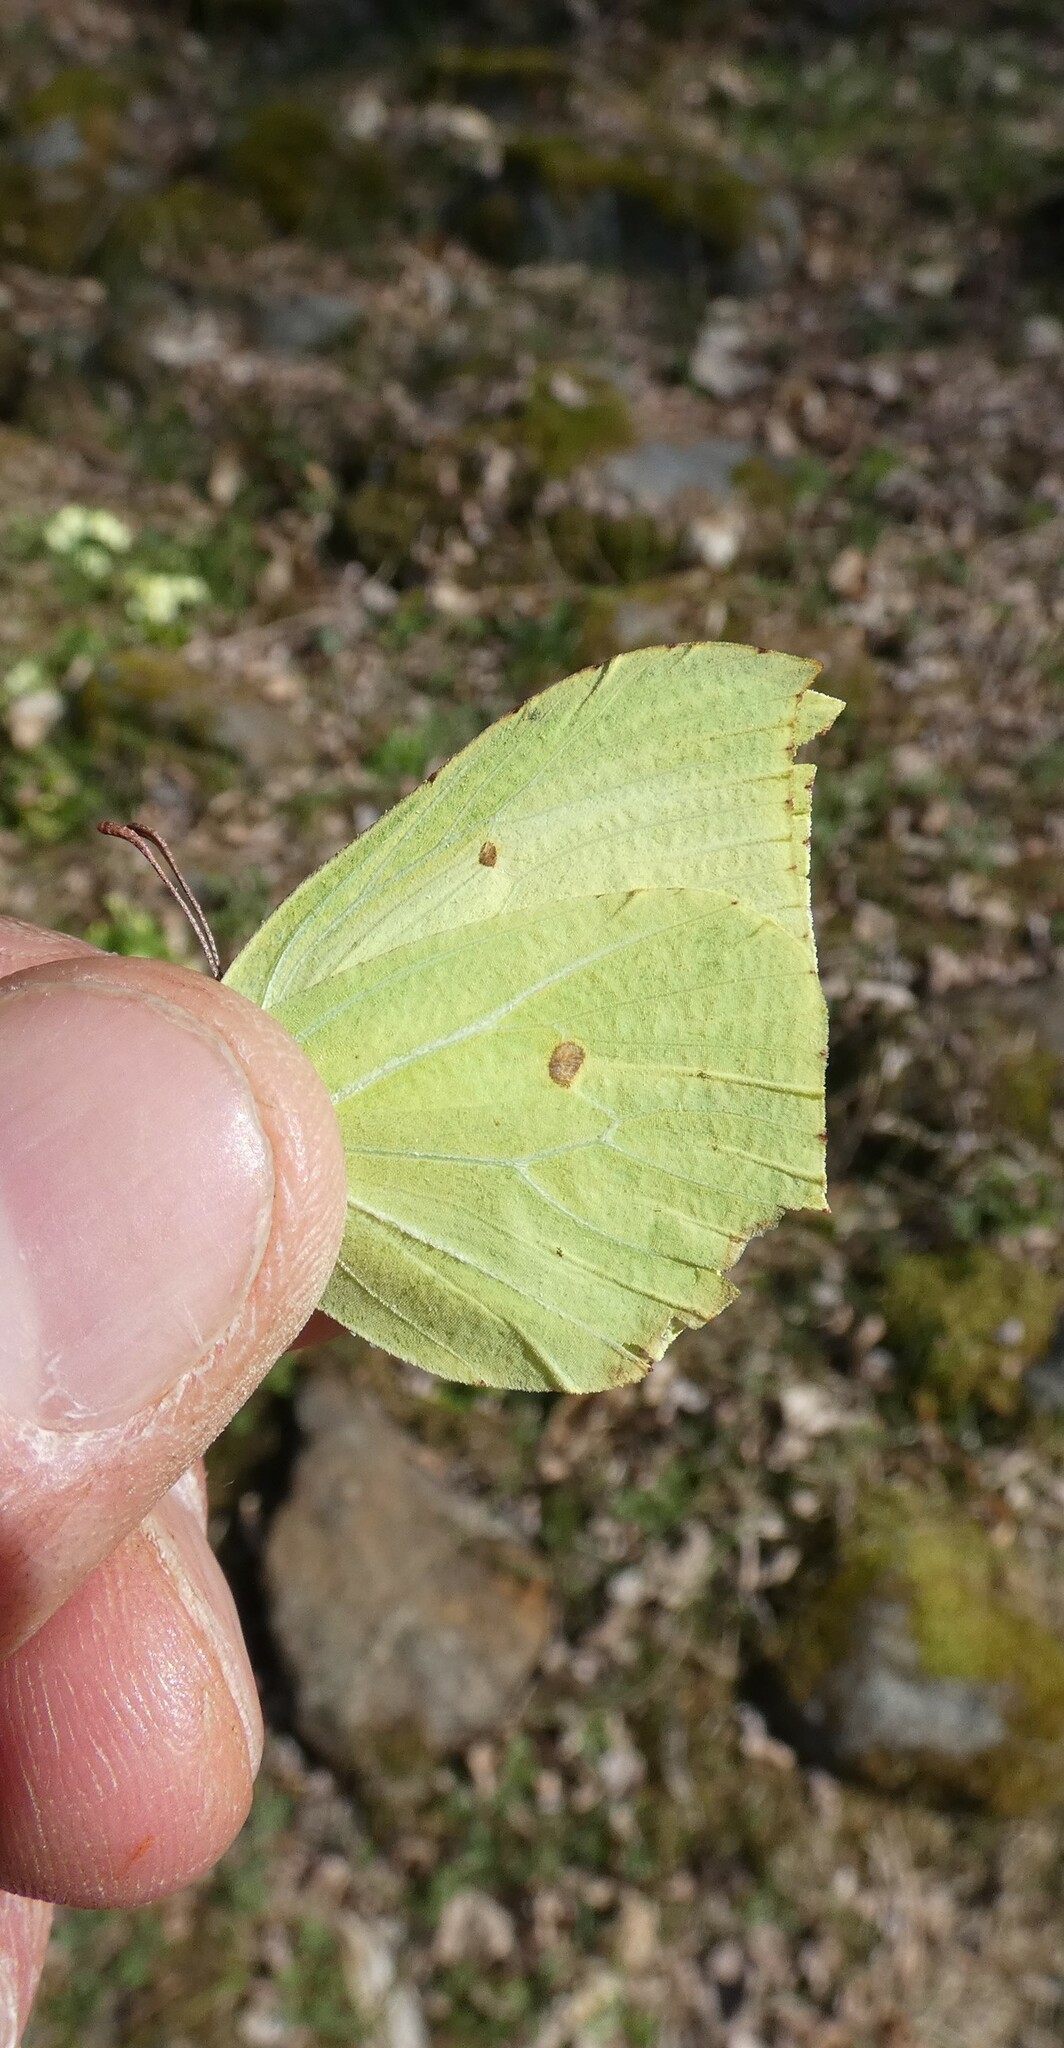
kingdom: Animalia
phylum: Arthropoda
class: Insecta
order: Lepidoptera
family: Pieridae
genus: Gonepteryx
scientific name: Gonepteryx rhamni
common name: Brimstone
